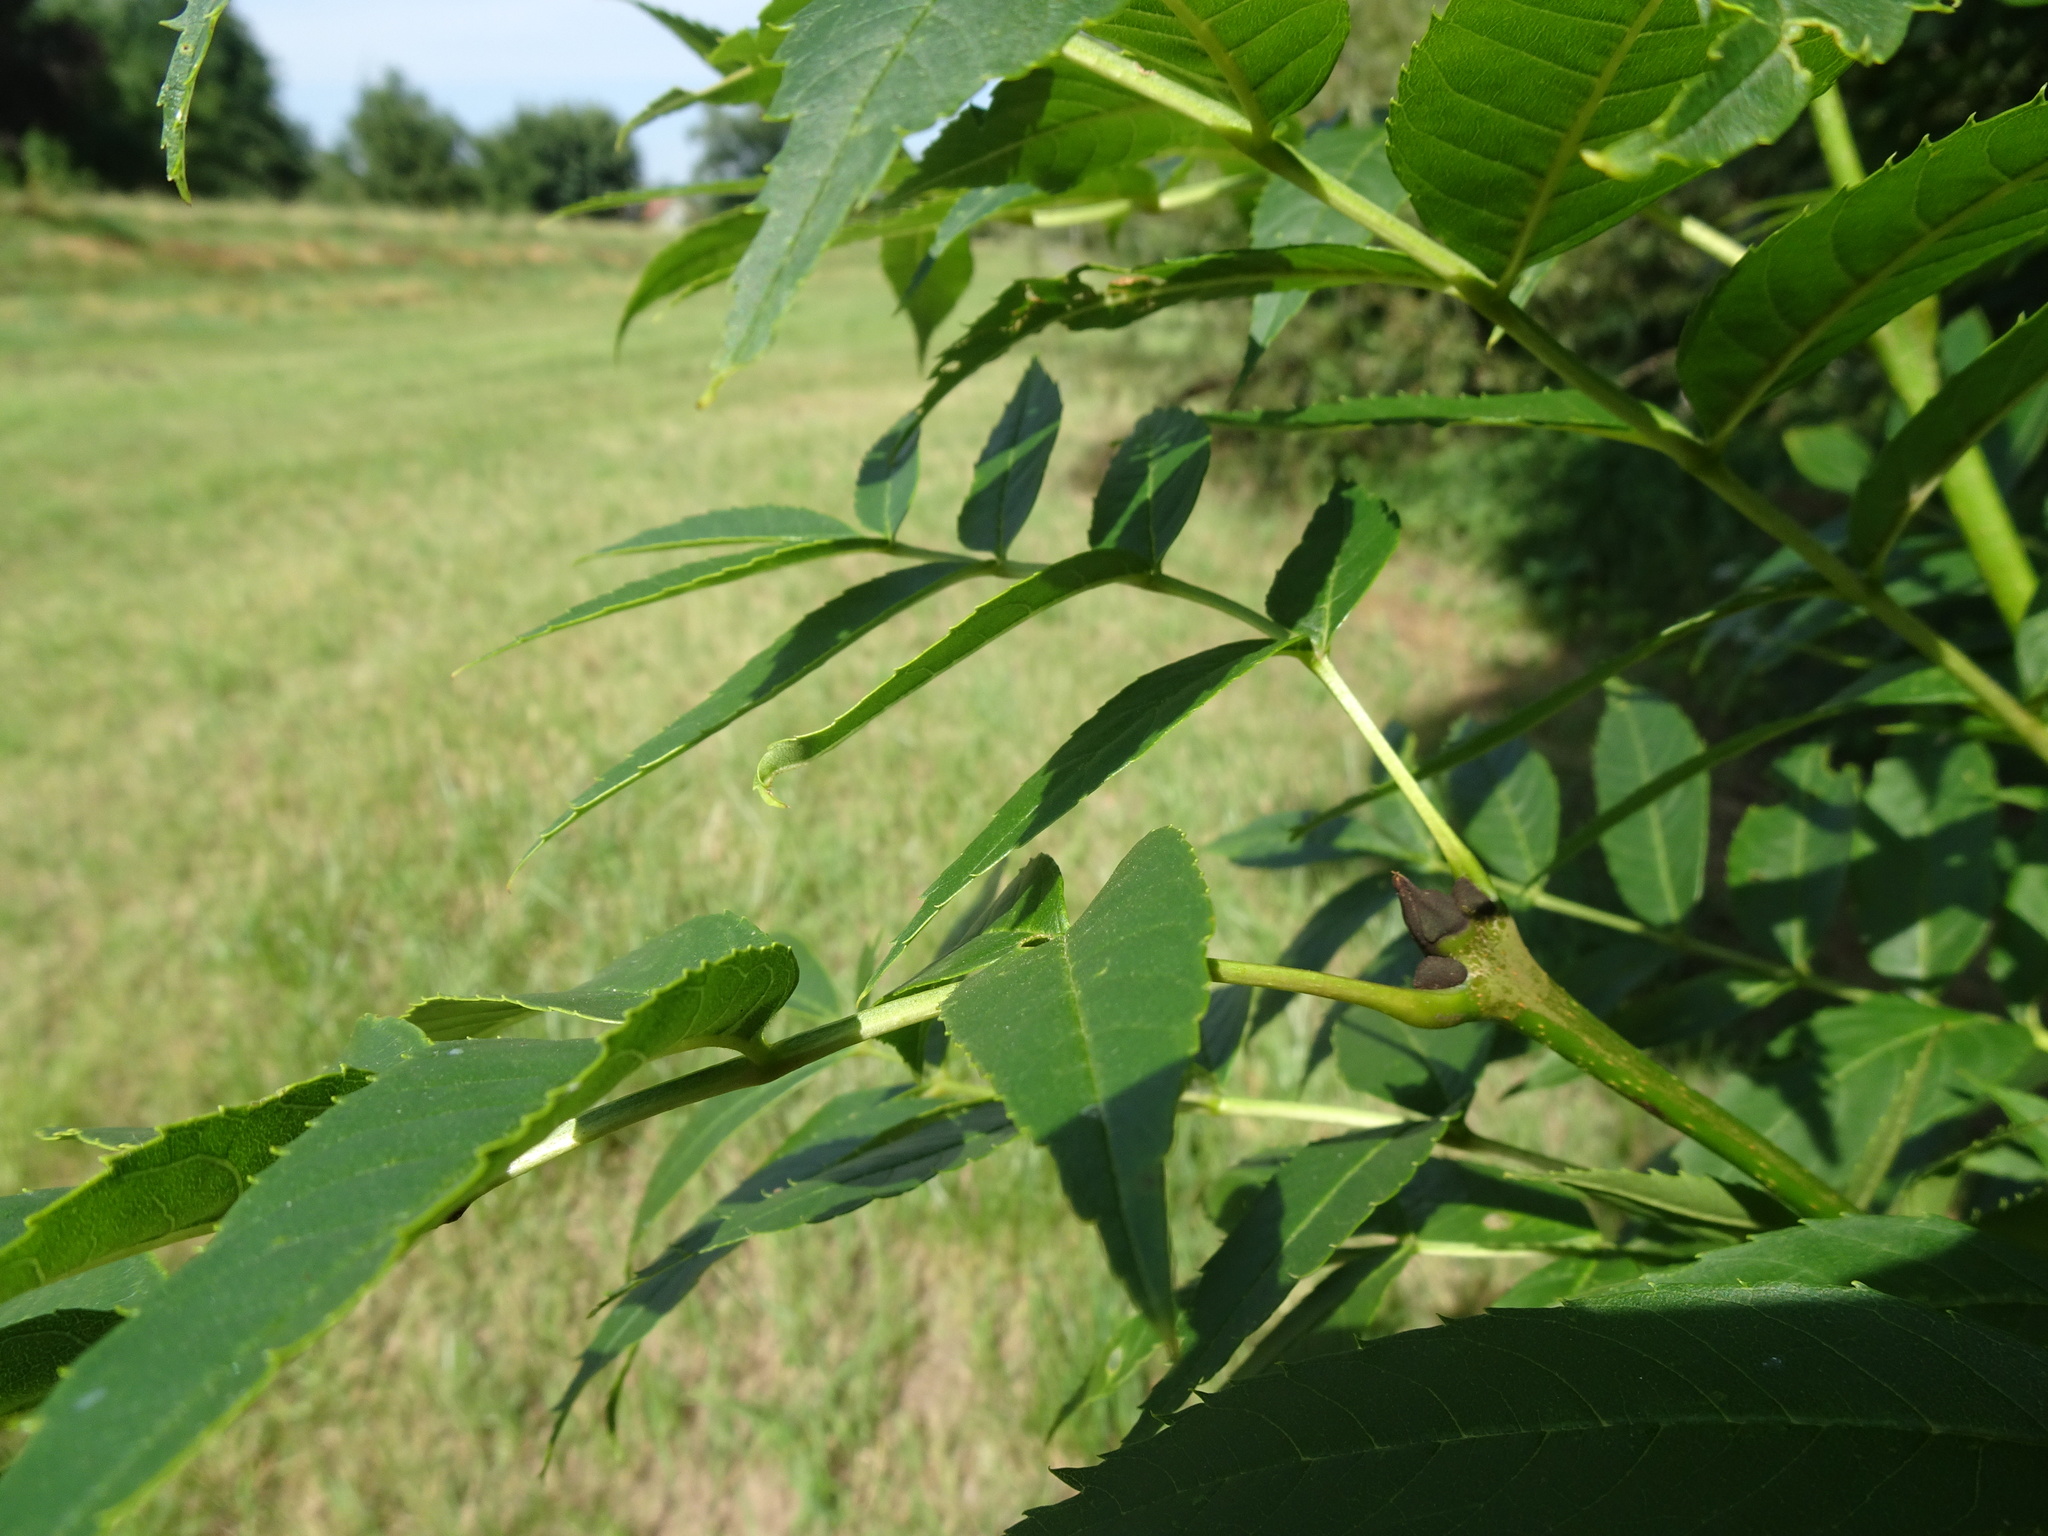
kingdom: Plantae
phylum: Tracheophyta
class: Magnoliopsida
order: Lamiales
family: Oleaceae
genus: Fraxinus
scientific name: Fraxinus excelsior
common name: European ash
